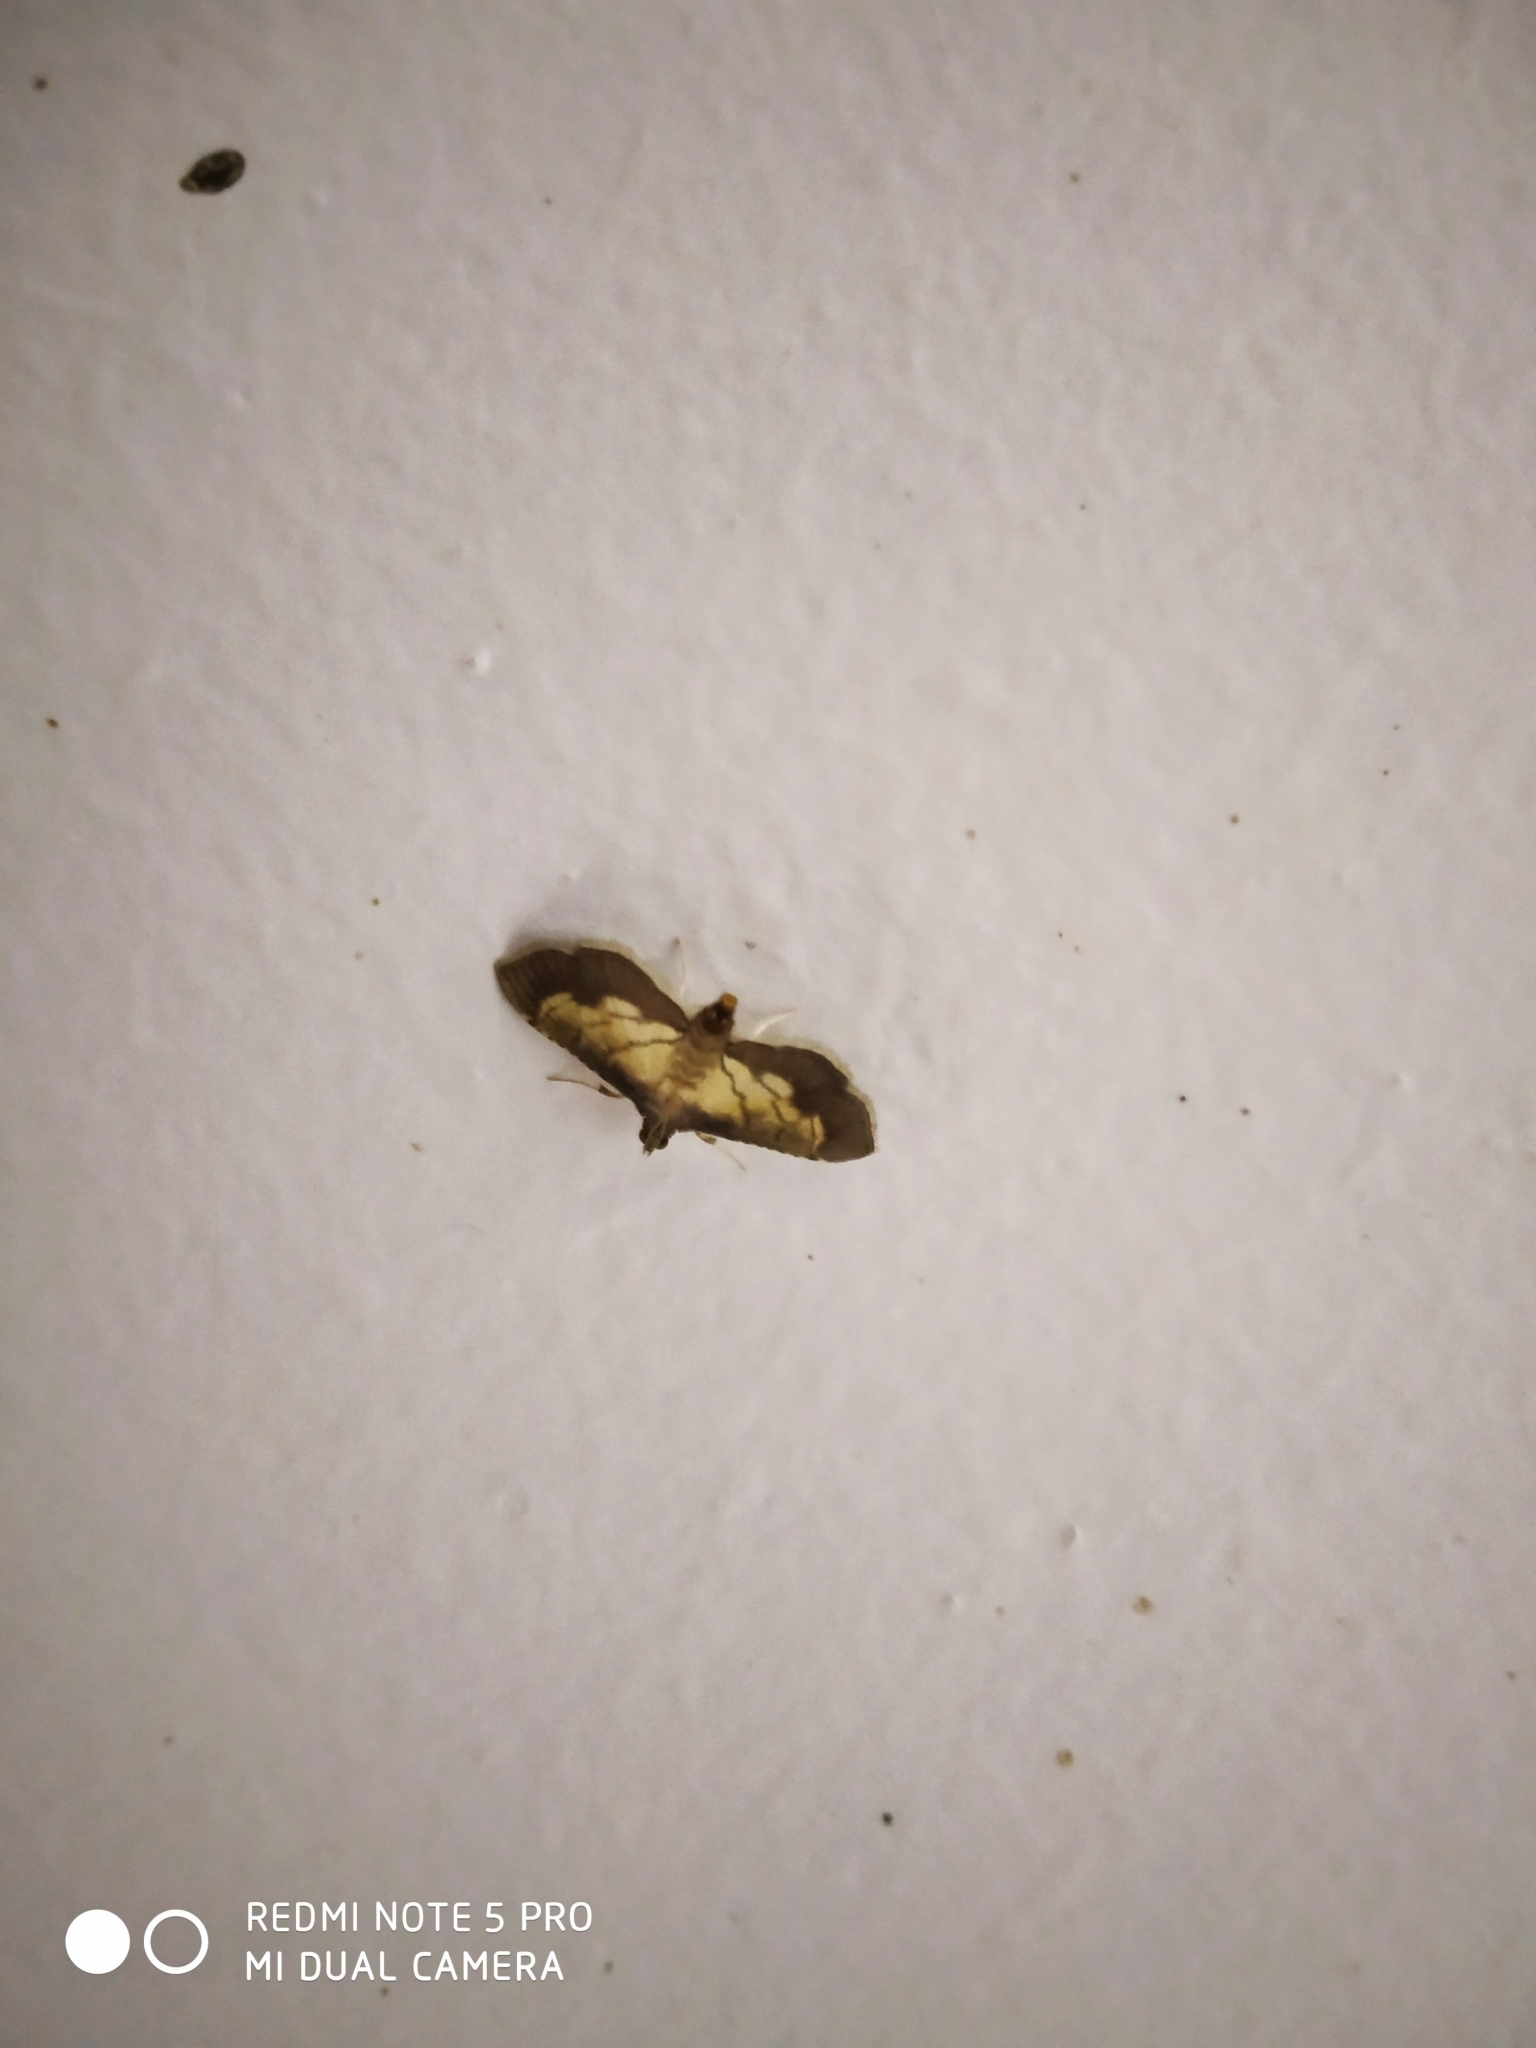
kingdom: Animalia
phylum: Arthropoda
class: Insecta
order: Lepidoptera
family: Crambidae
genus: Cnaphalocrocis
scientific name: Cnaphalocrocis poeyalis
